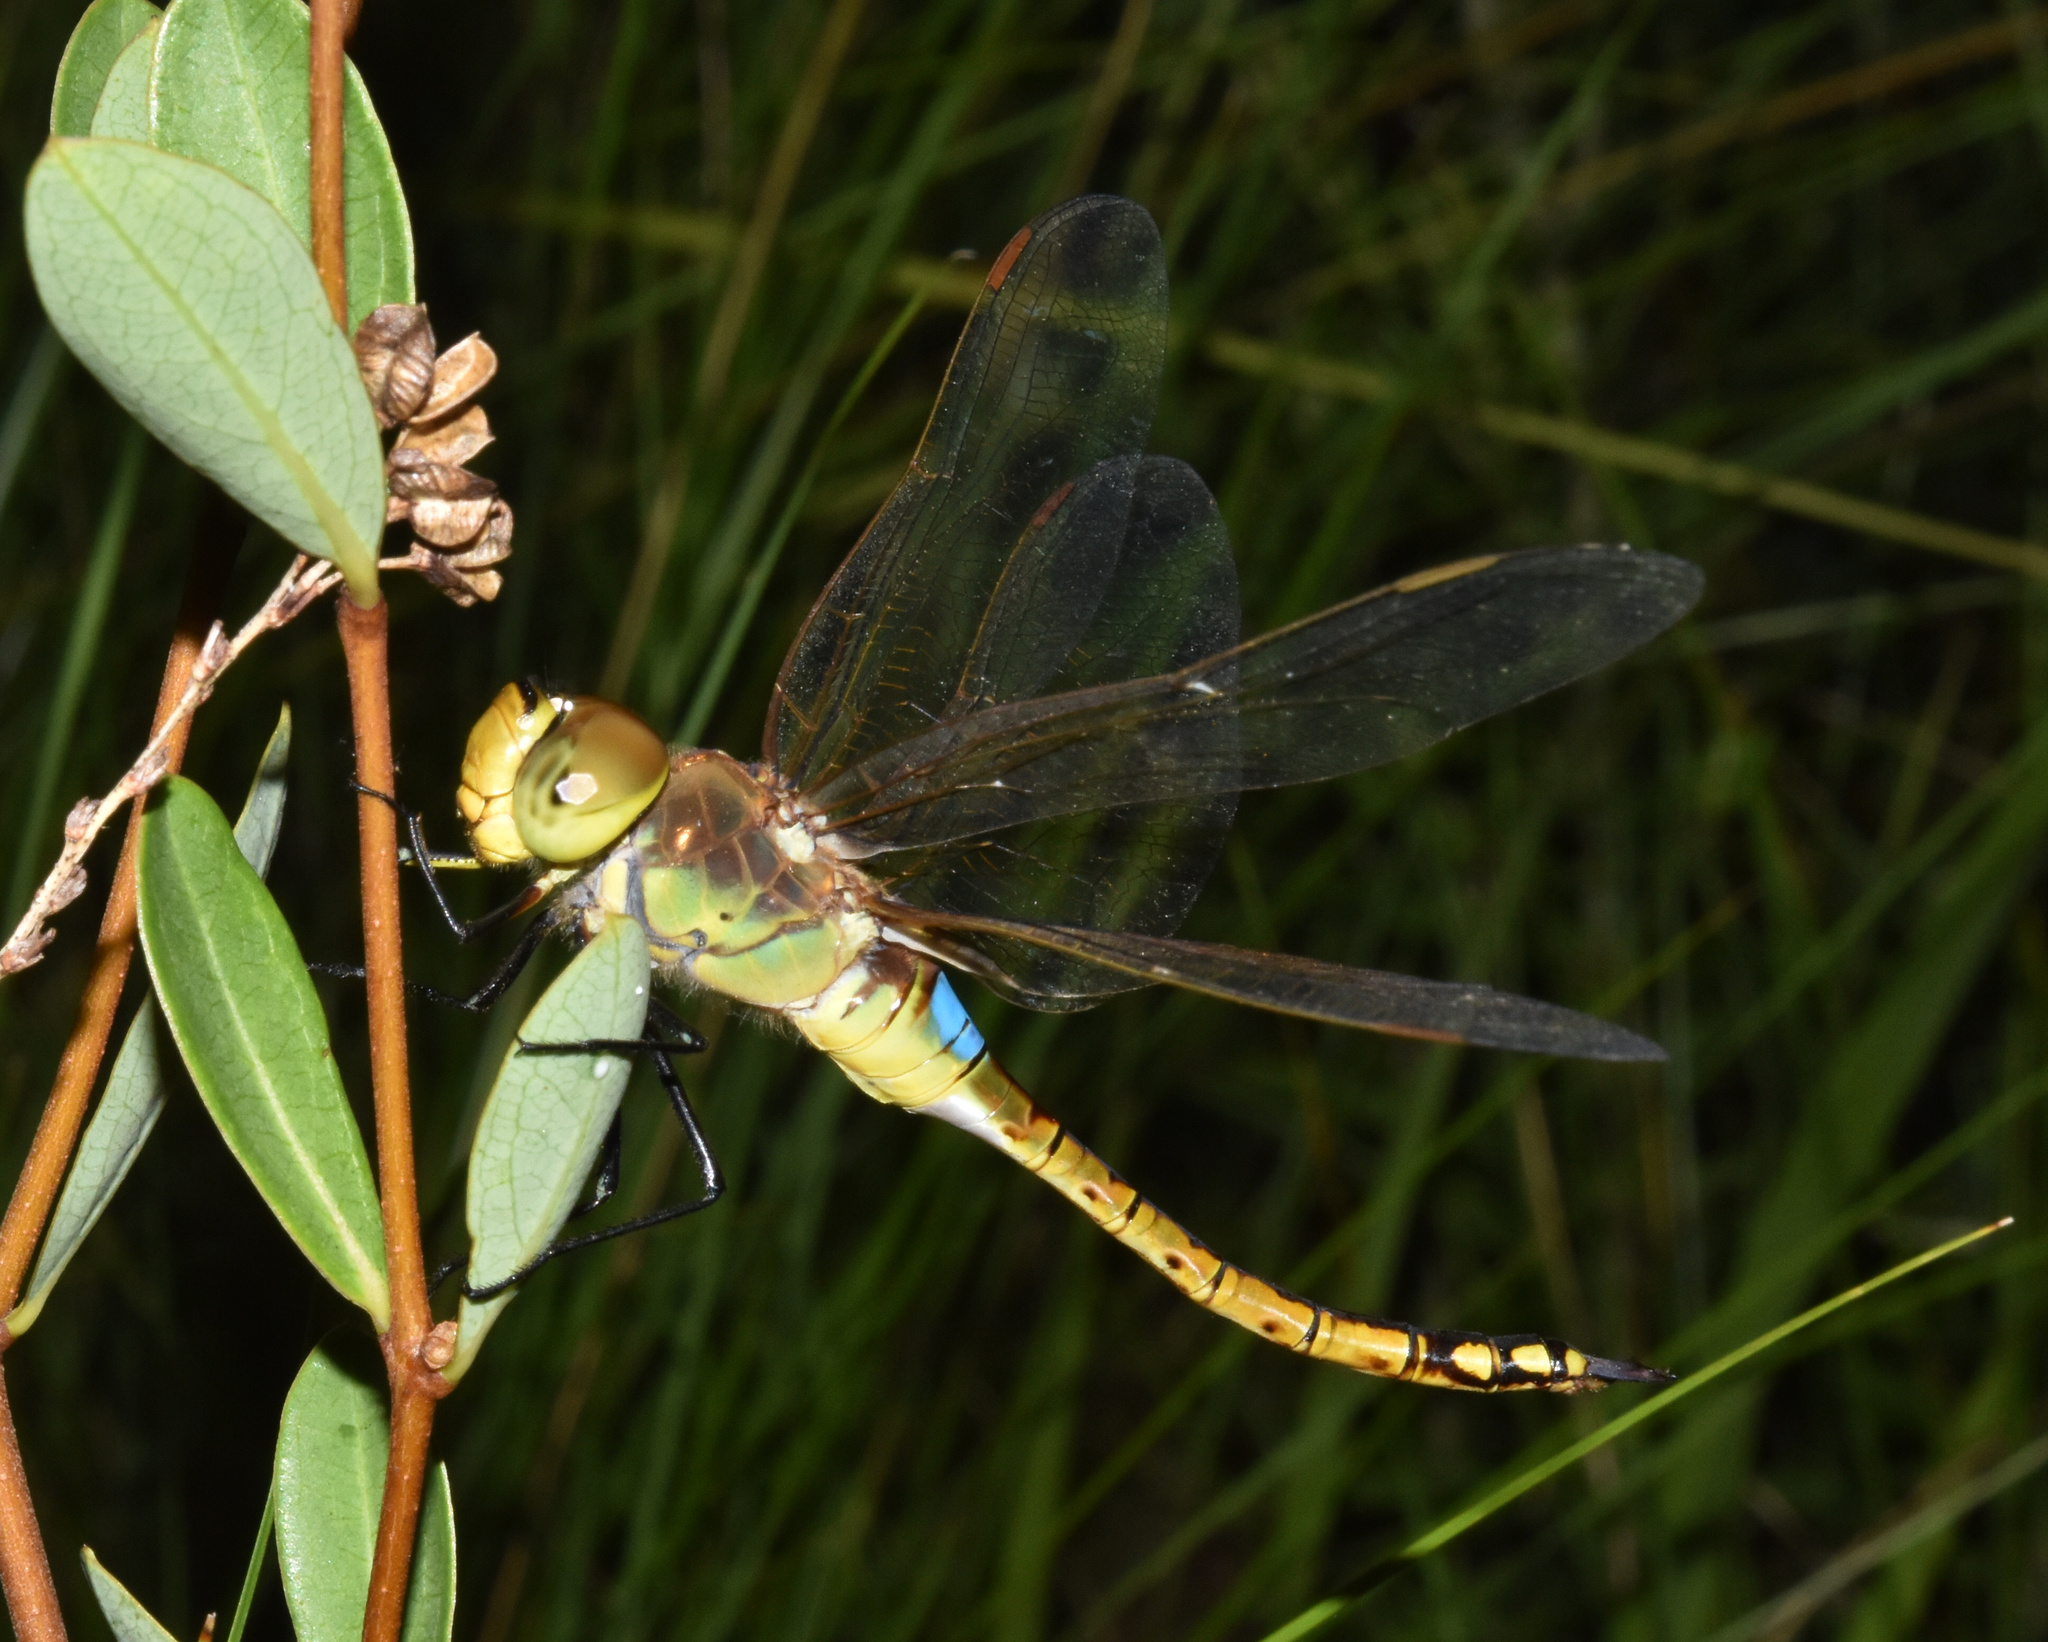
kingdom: Animalia
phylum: Arthropoda
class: Insecta
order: Odonata
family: Aeshnidae
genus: Anax
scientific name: Anax ephippiger
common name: Vagrant emperor
